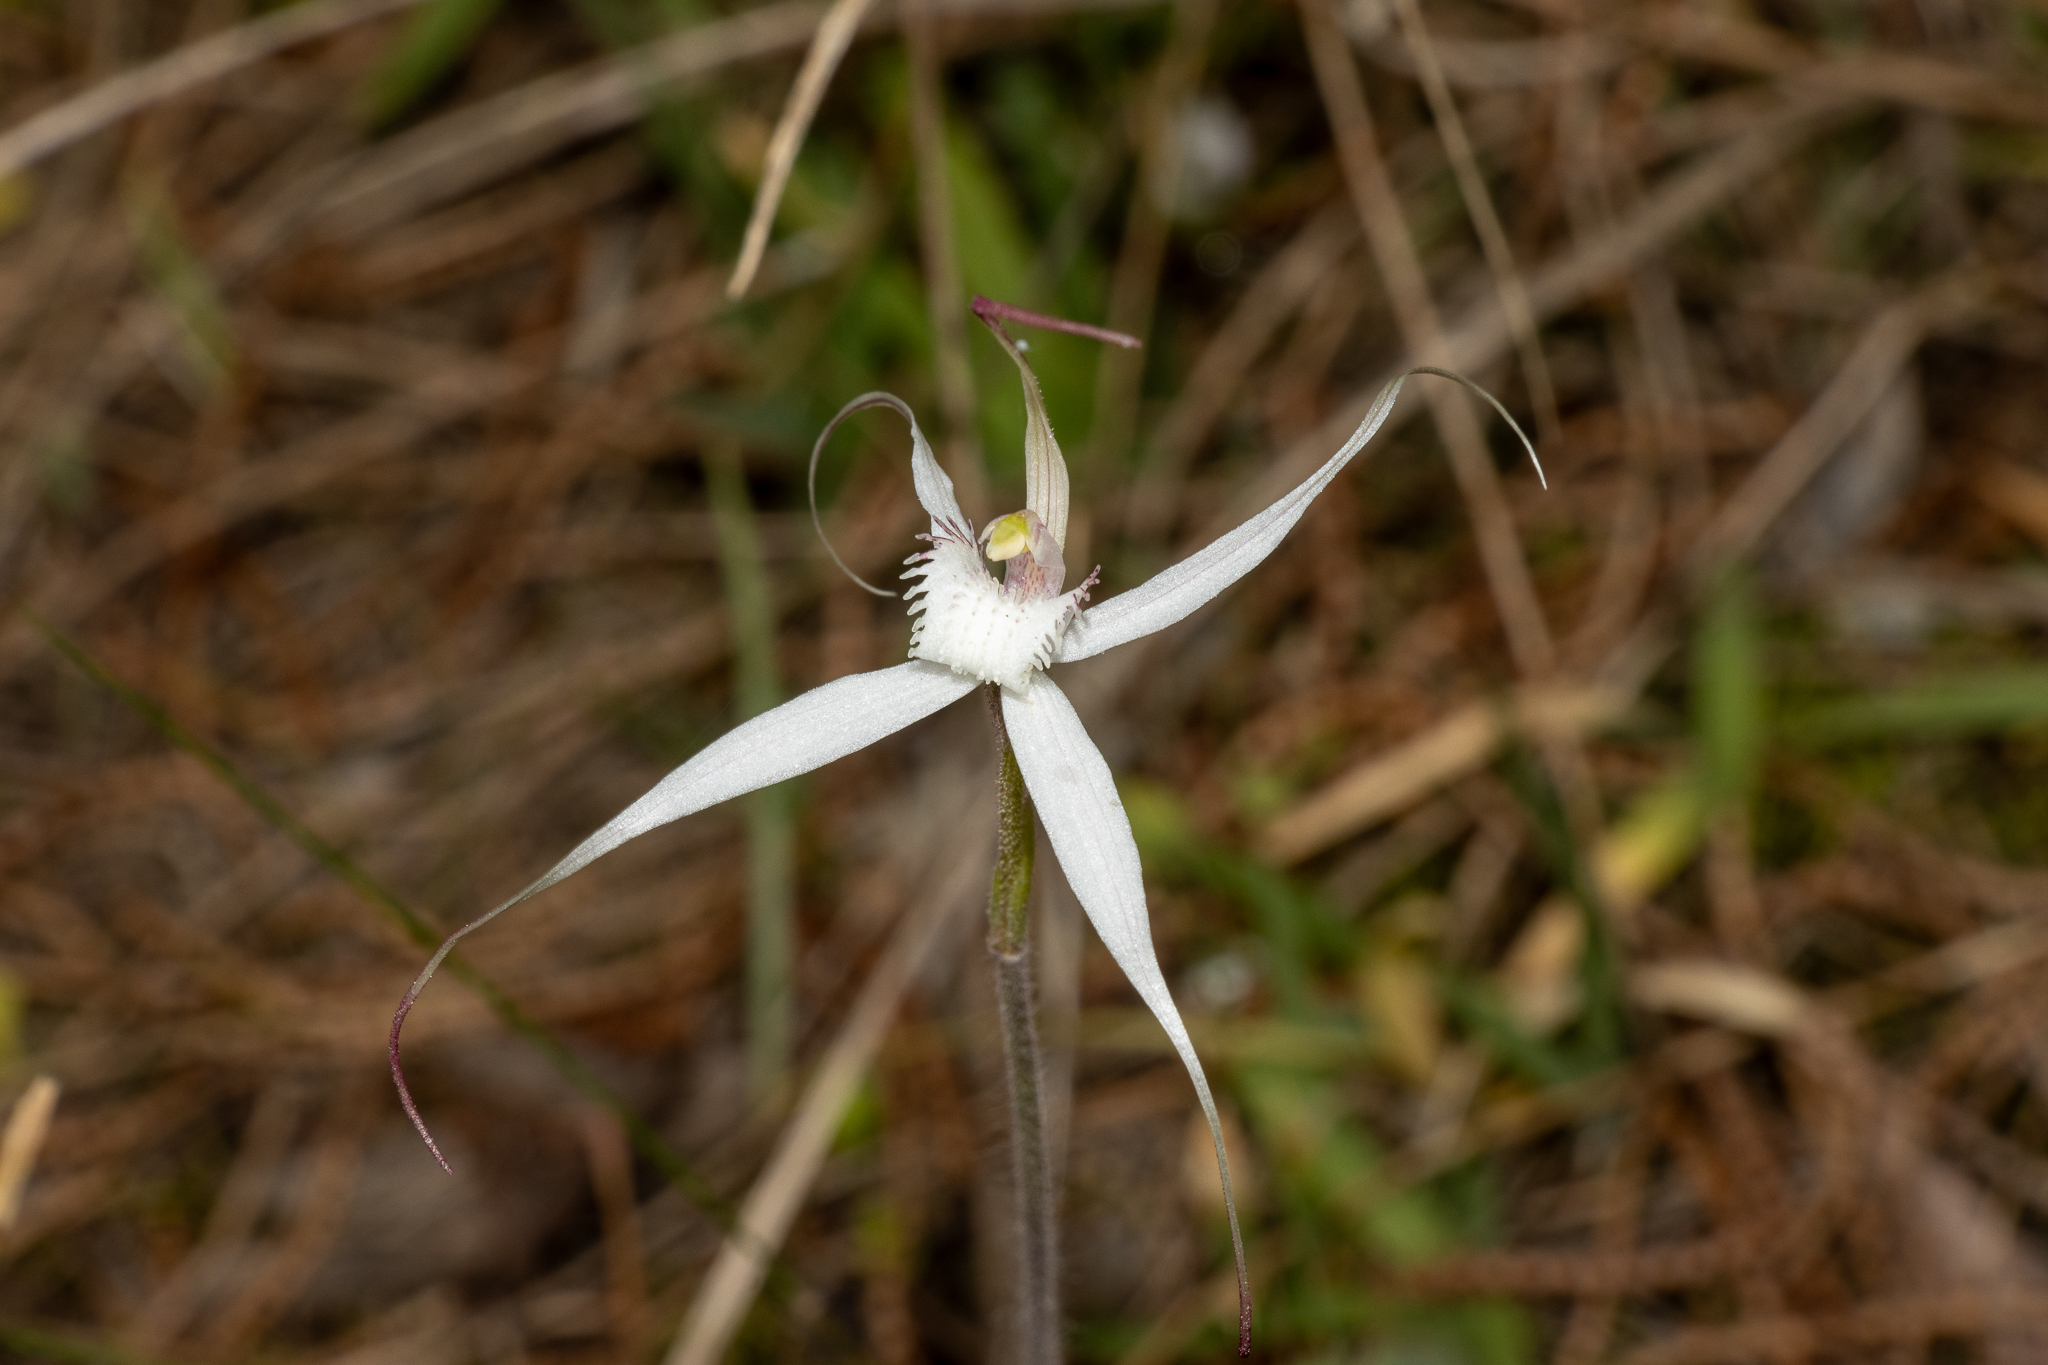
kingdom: Plantae
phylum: Tracheophyta
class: Liliopsida
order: Asparagales
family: Orchidaceae
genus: Caladenia
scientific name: Caladenia intuta
